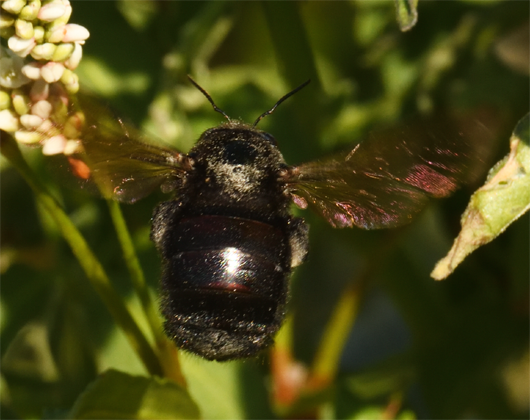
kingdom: Animalia
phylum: Arthropoda
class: Insecta
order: Hymenoptera
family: Apidae
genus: Xylocopa
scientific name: Xylocopa sonorina
